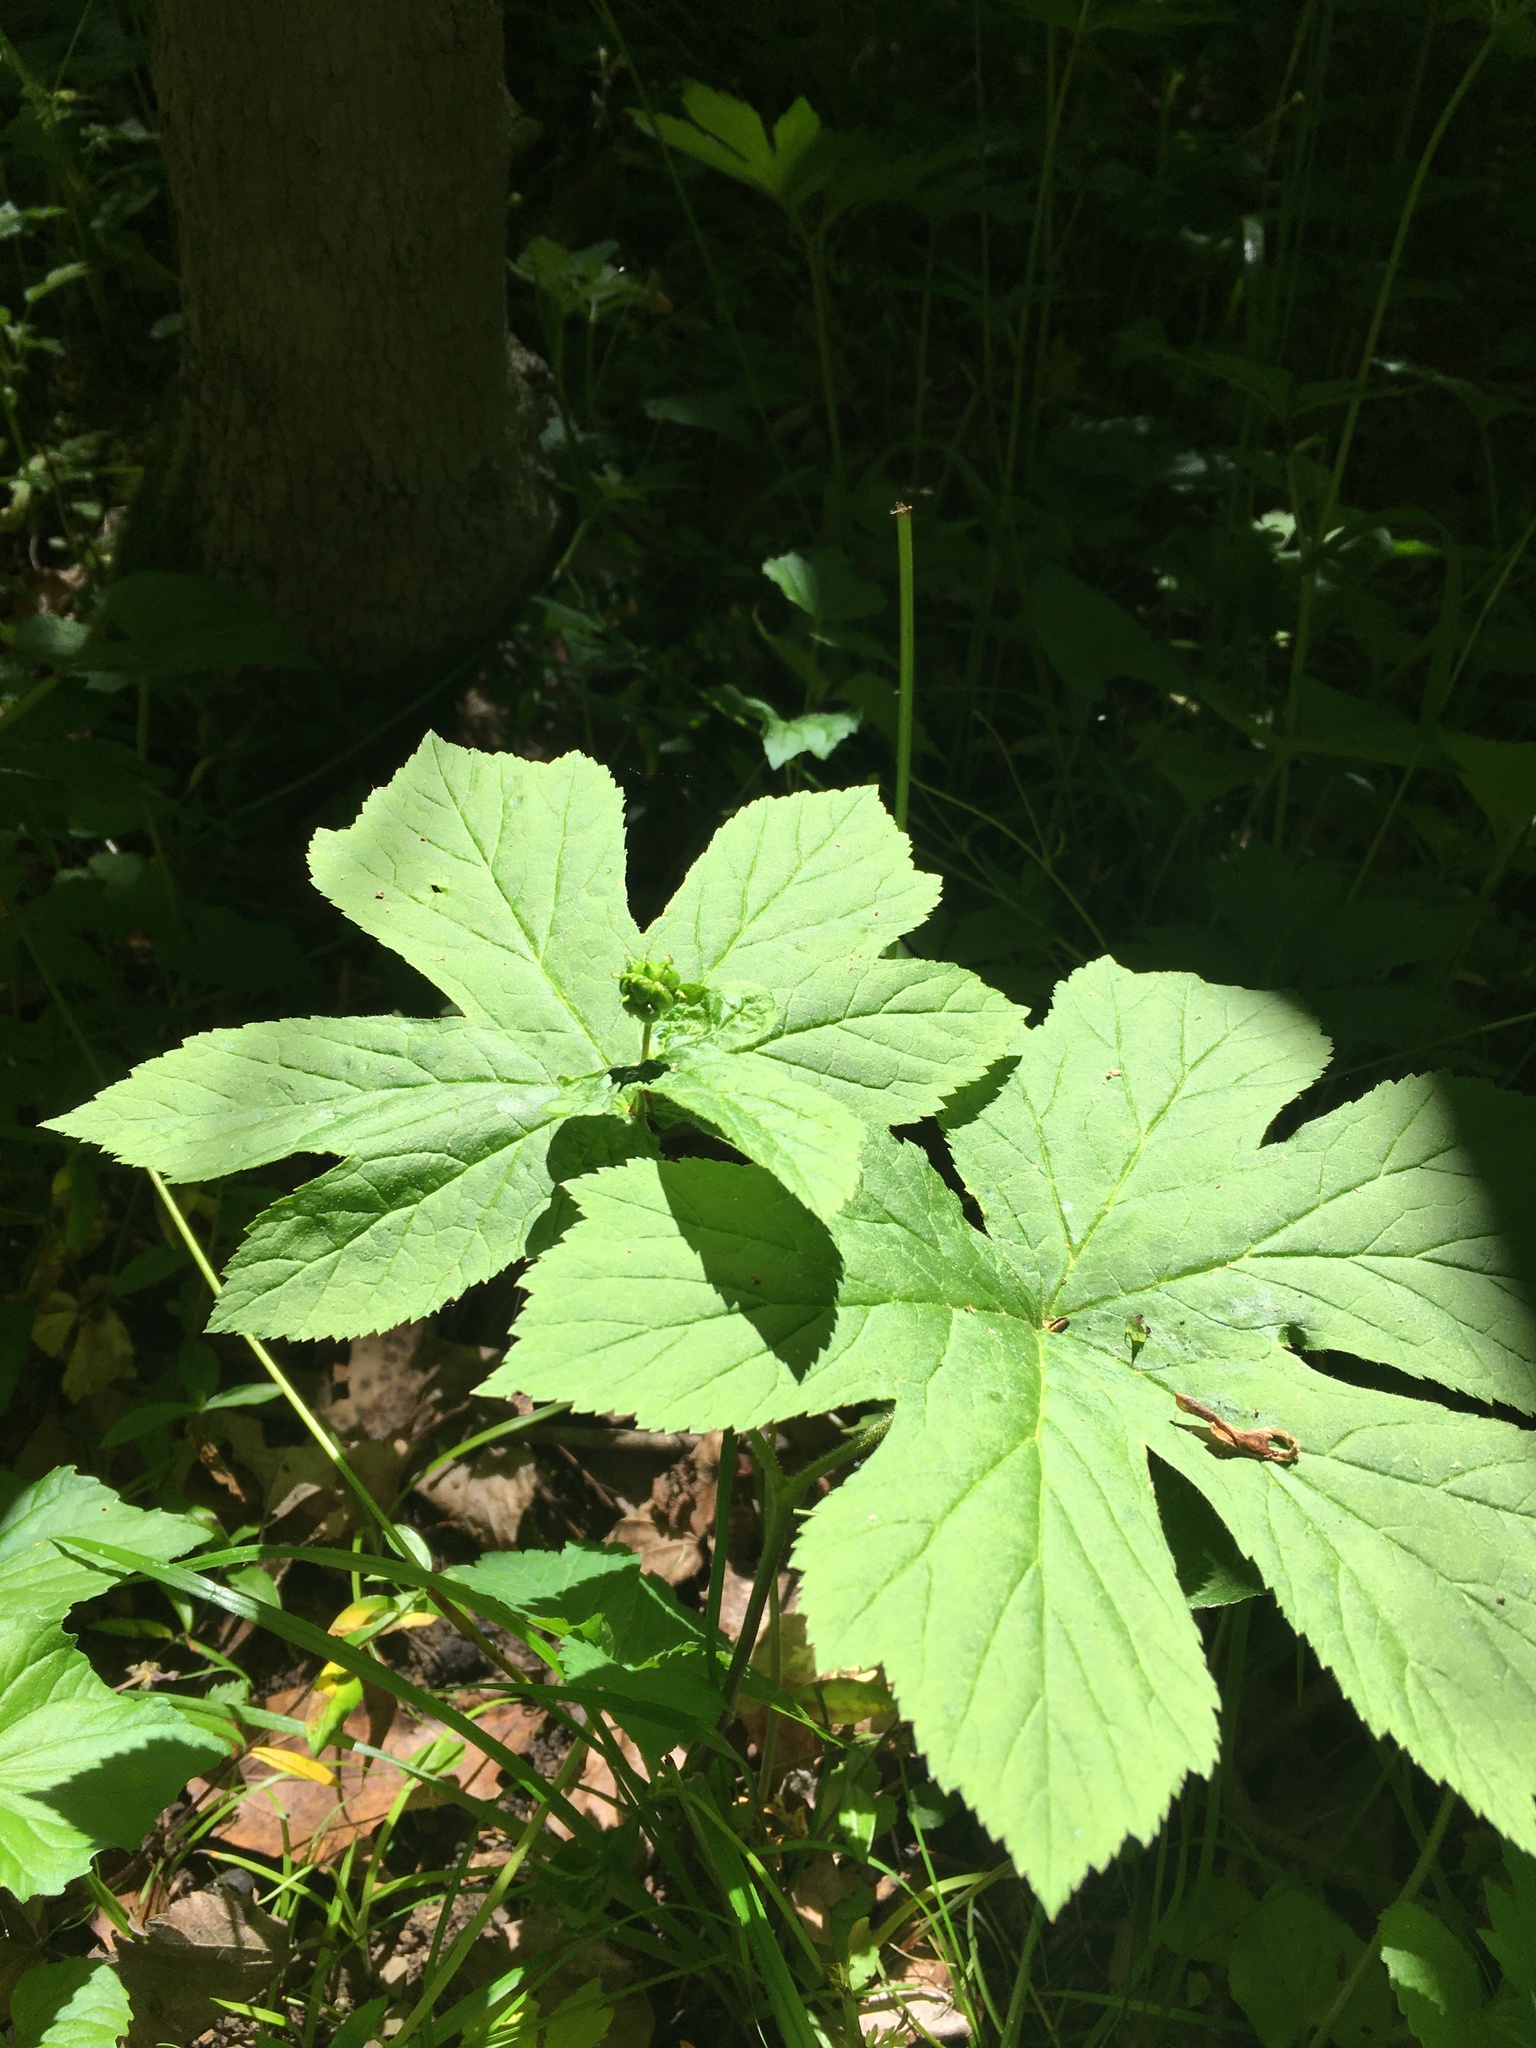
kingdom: Plantae
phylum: Tracheophyta
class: Magnoliopsida
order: Ranunculales
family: Ranunculaceae
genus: Hydrastis
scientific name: Hydrastis canadensis
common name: Goldenseal
